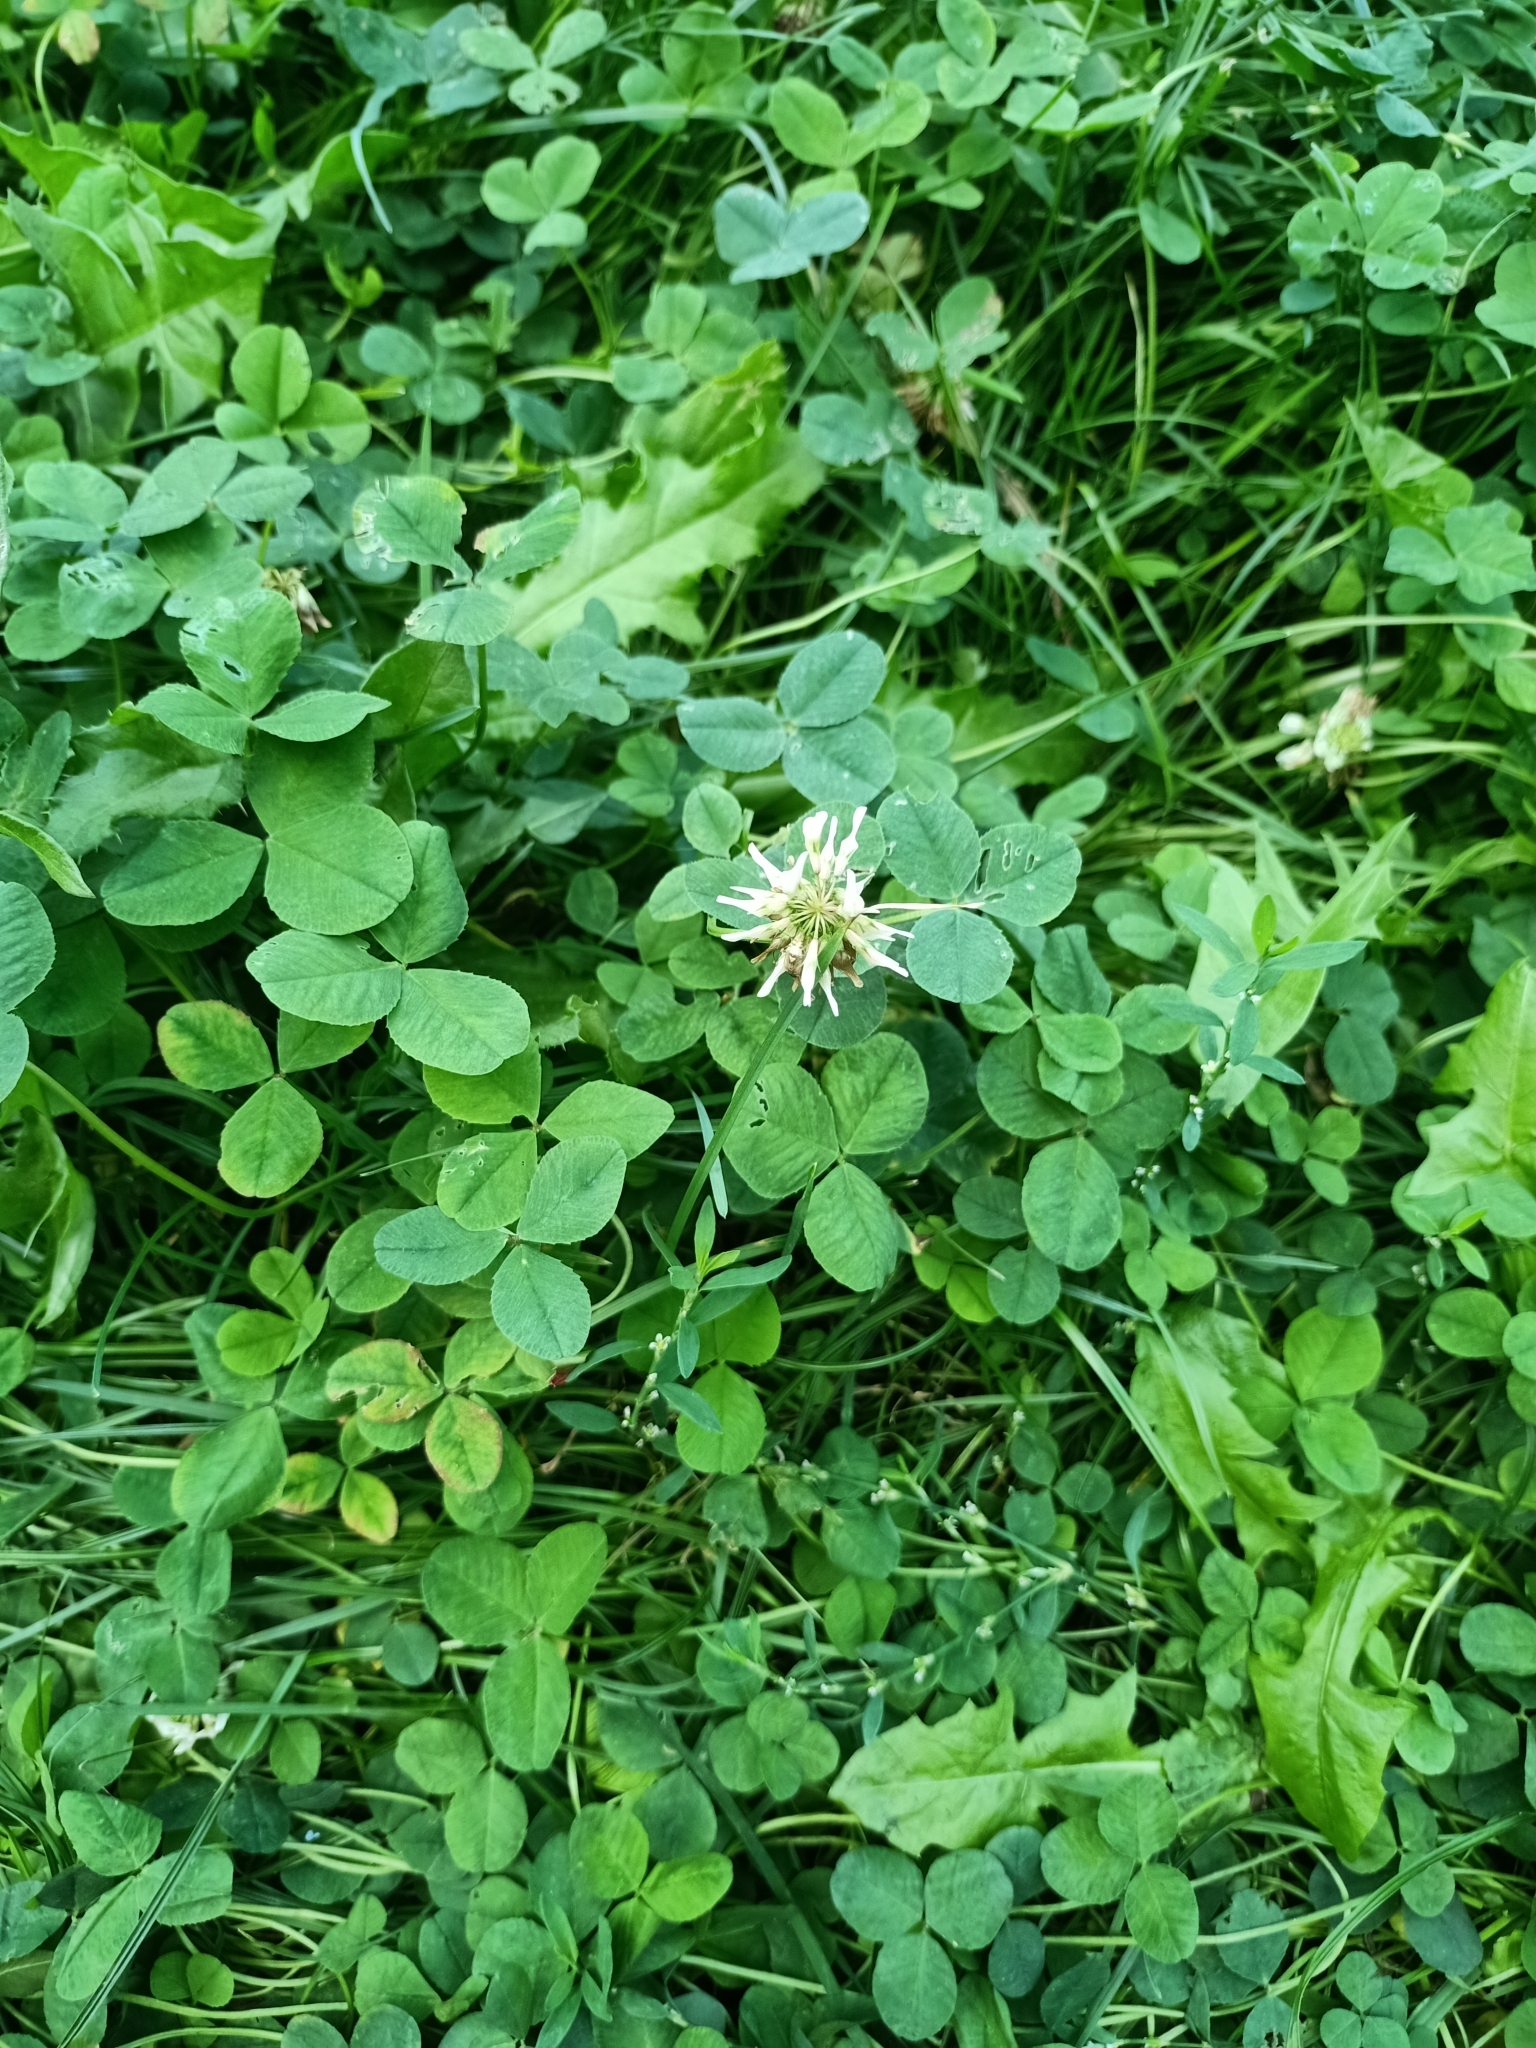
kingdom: Plantae
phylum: Tracheophyta
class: Magnoliopsida
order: Fabales
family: Fabaceae
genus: Trifolium
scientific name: Trifolium repens
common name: White clover
